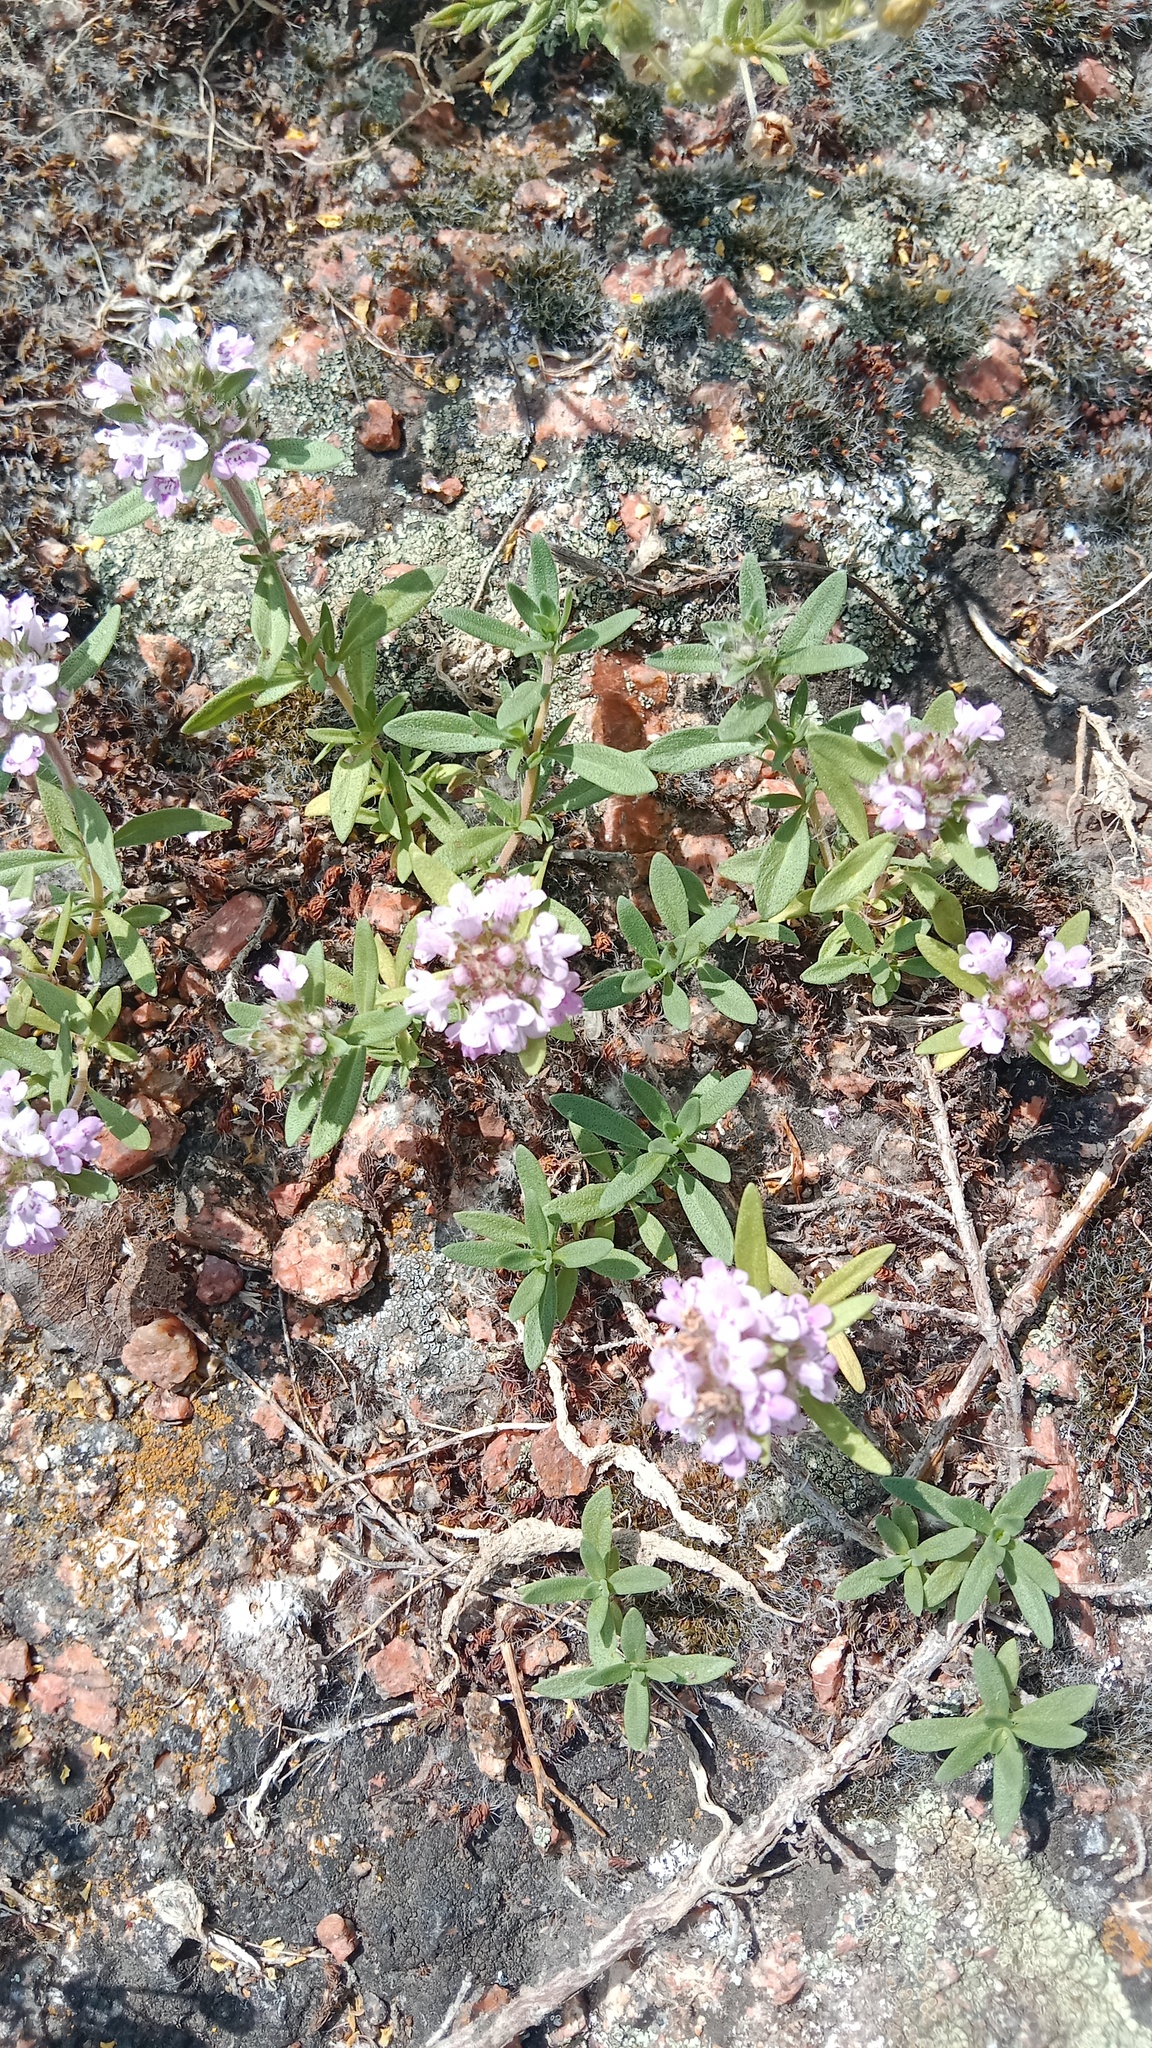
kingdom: Plantae
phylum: Tracheophyta
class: Magnoliopsida
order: Lamiales
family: Lamiaceae
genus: Thymus
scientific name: Thymus dimorphus
